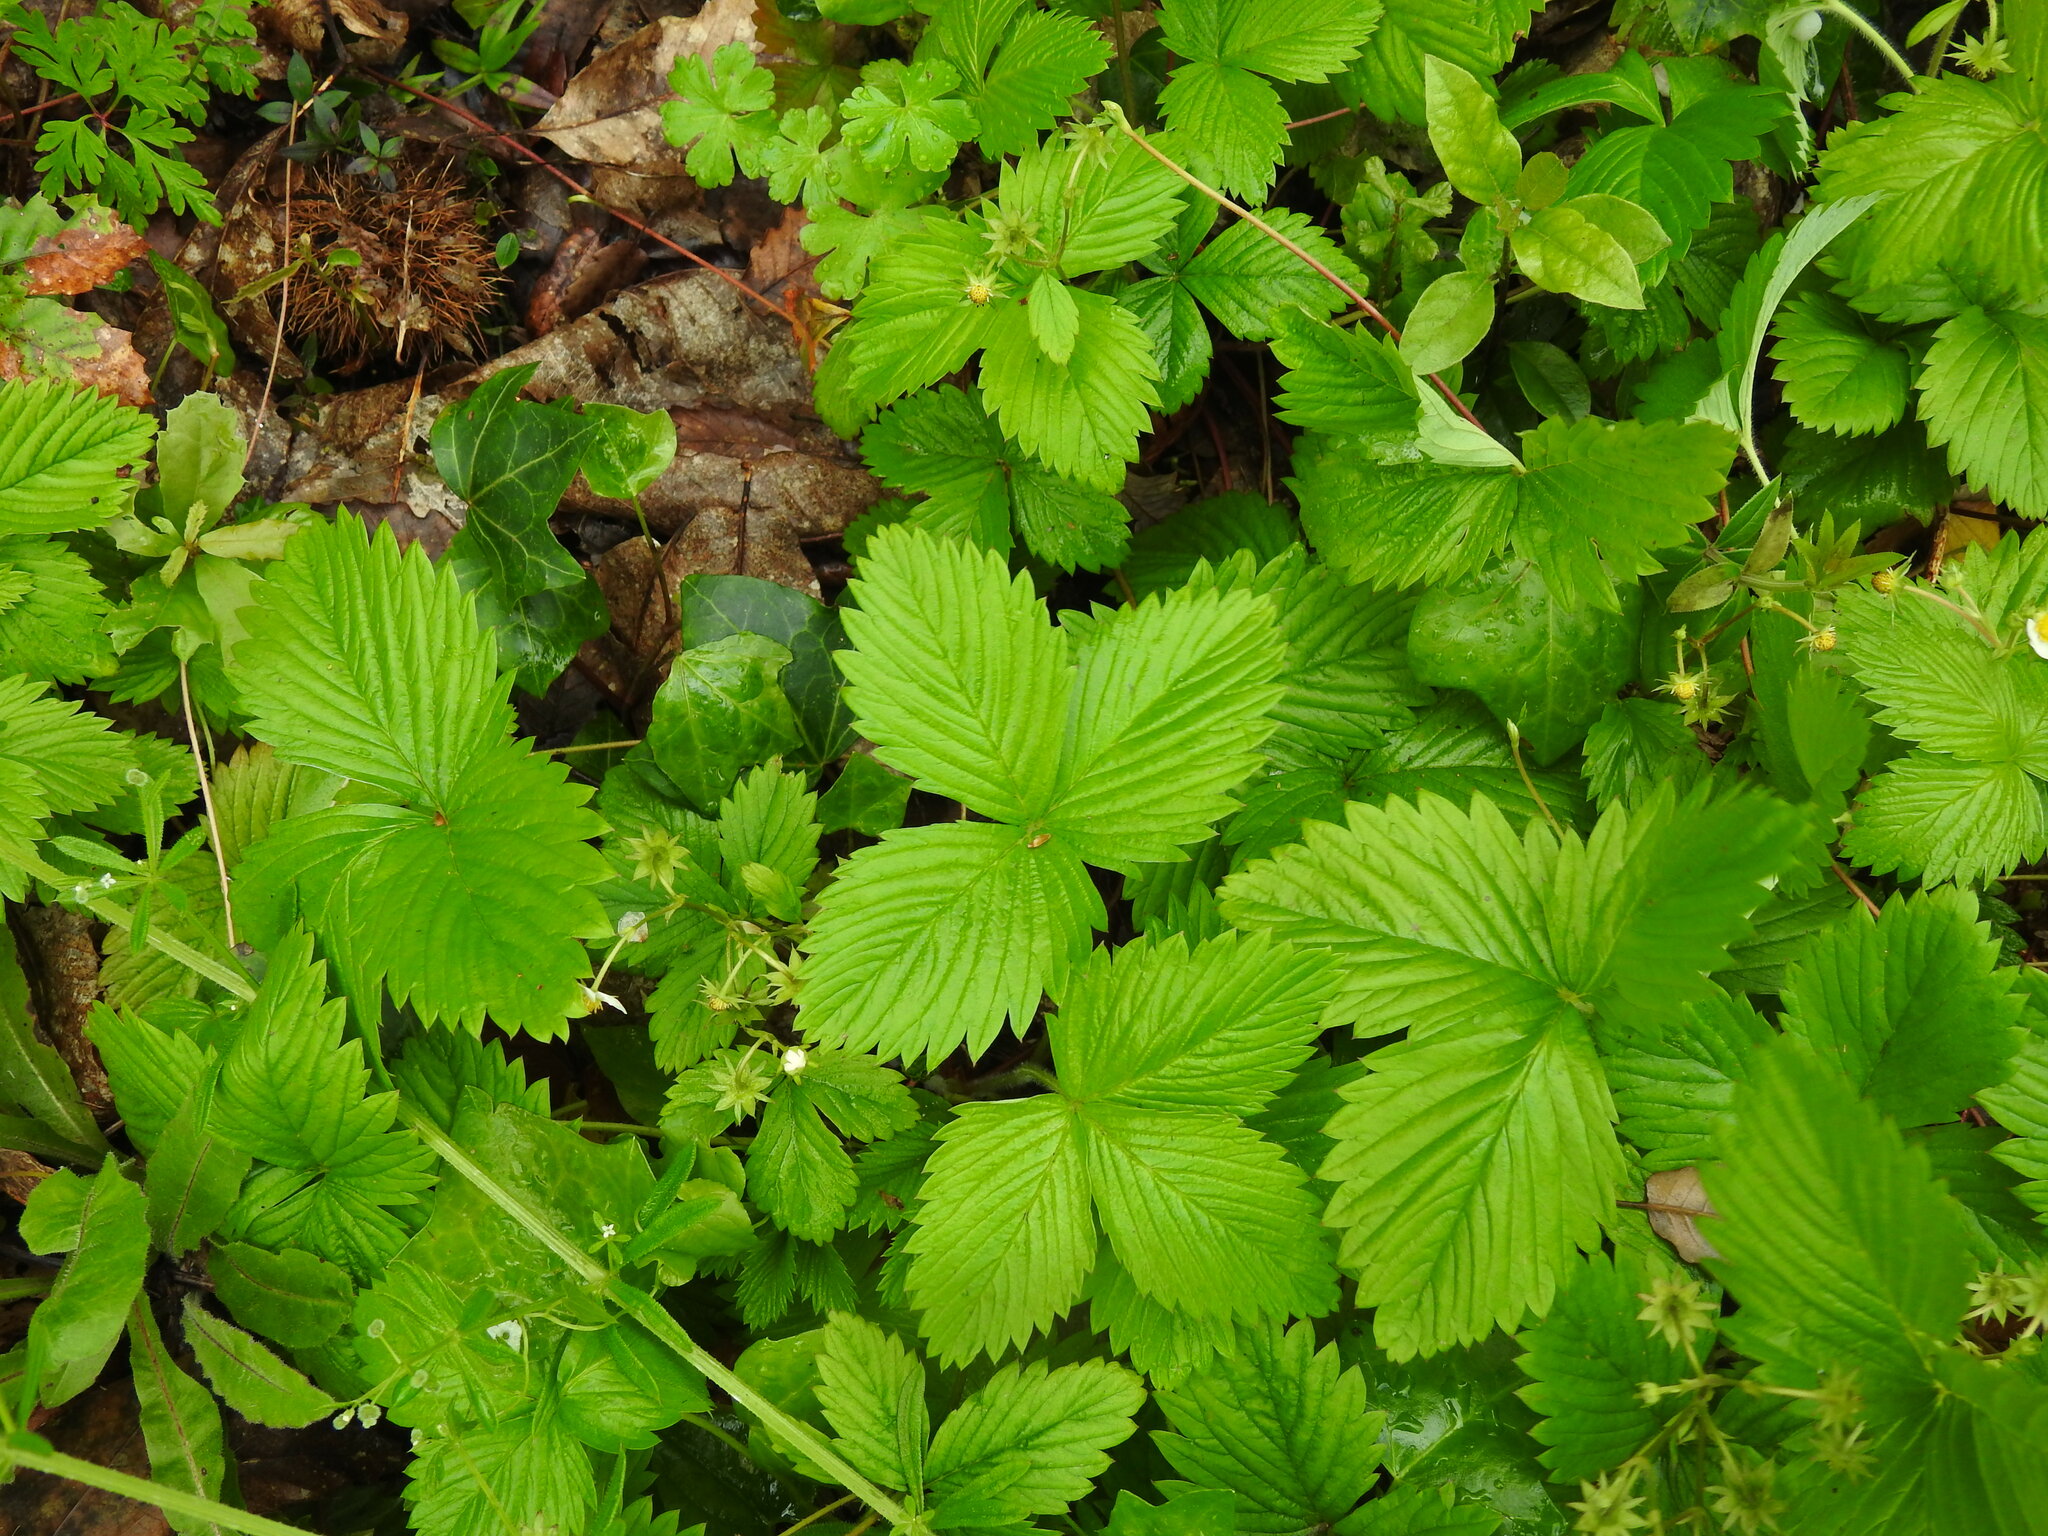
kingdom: Plantae
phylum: Tracheophyta
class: Magnoliopsida
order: Rosales
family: Rosaceae
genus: Fragaria
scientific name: Fragaria vesca
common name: Wild strawberry
